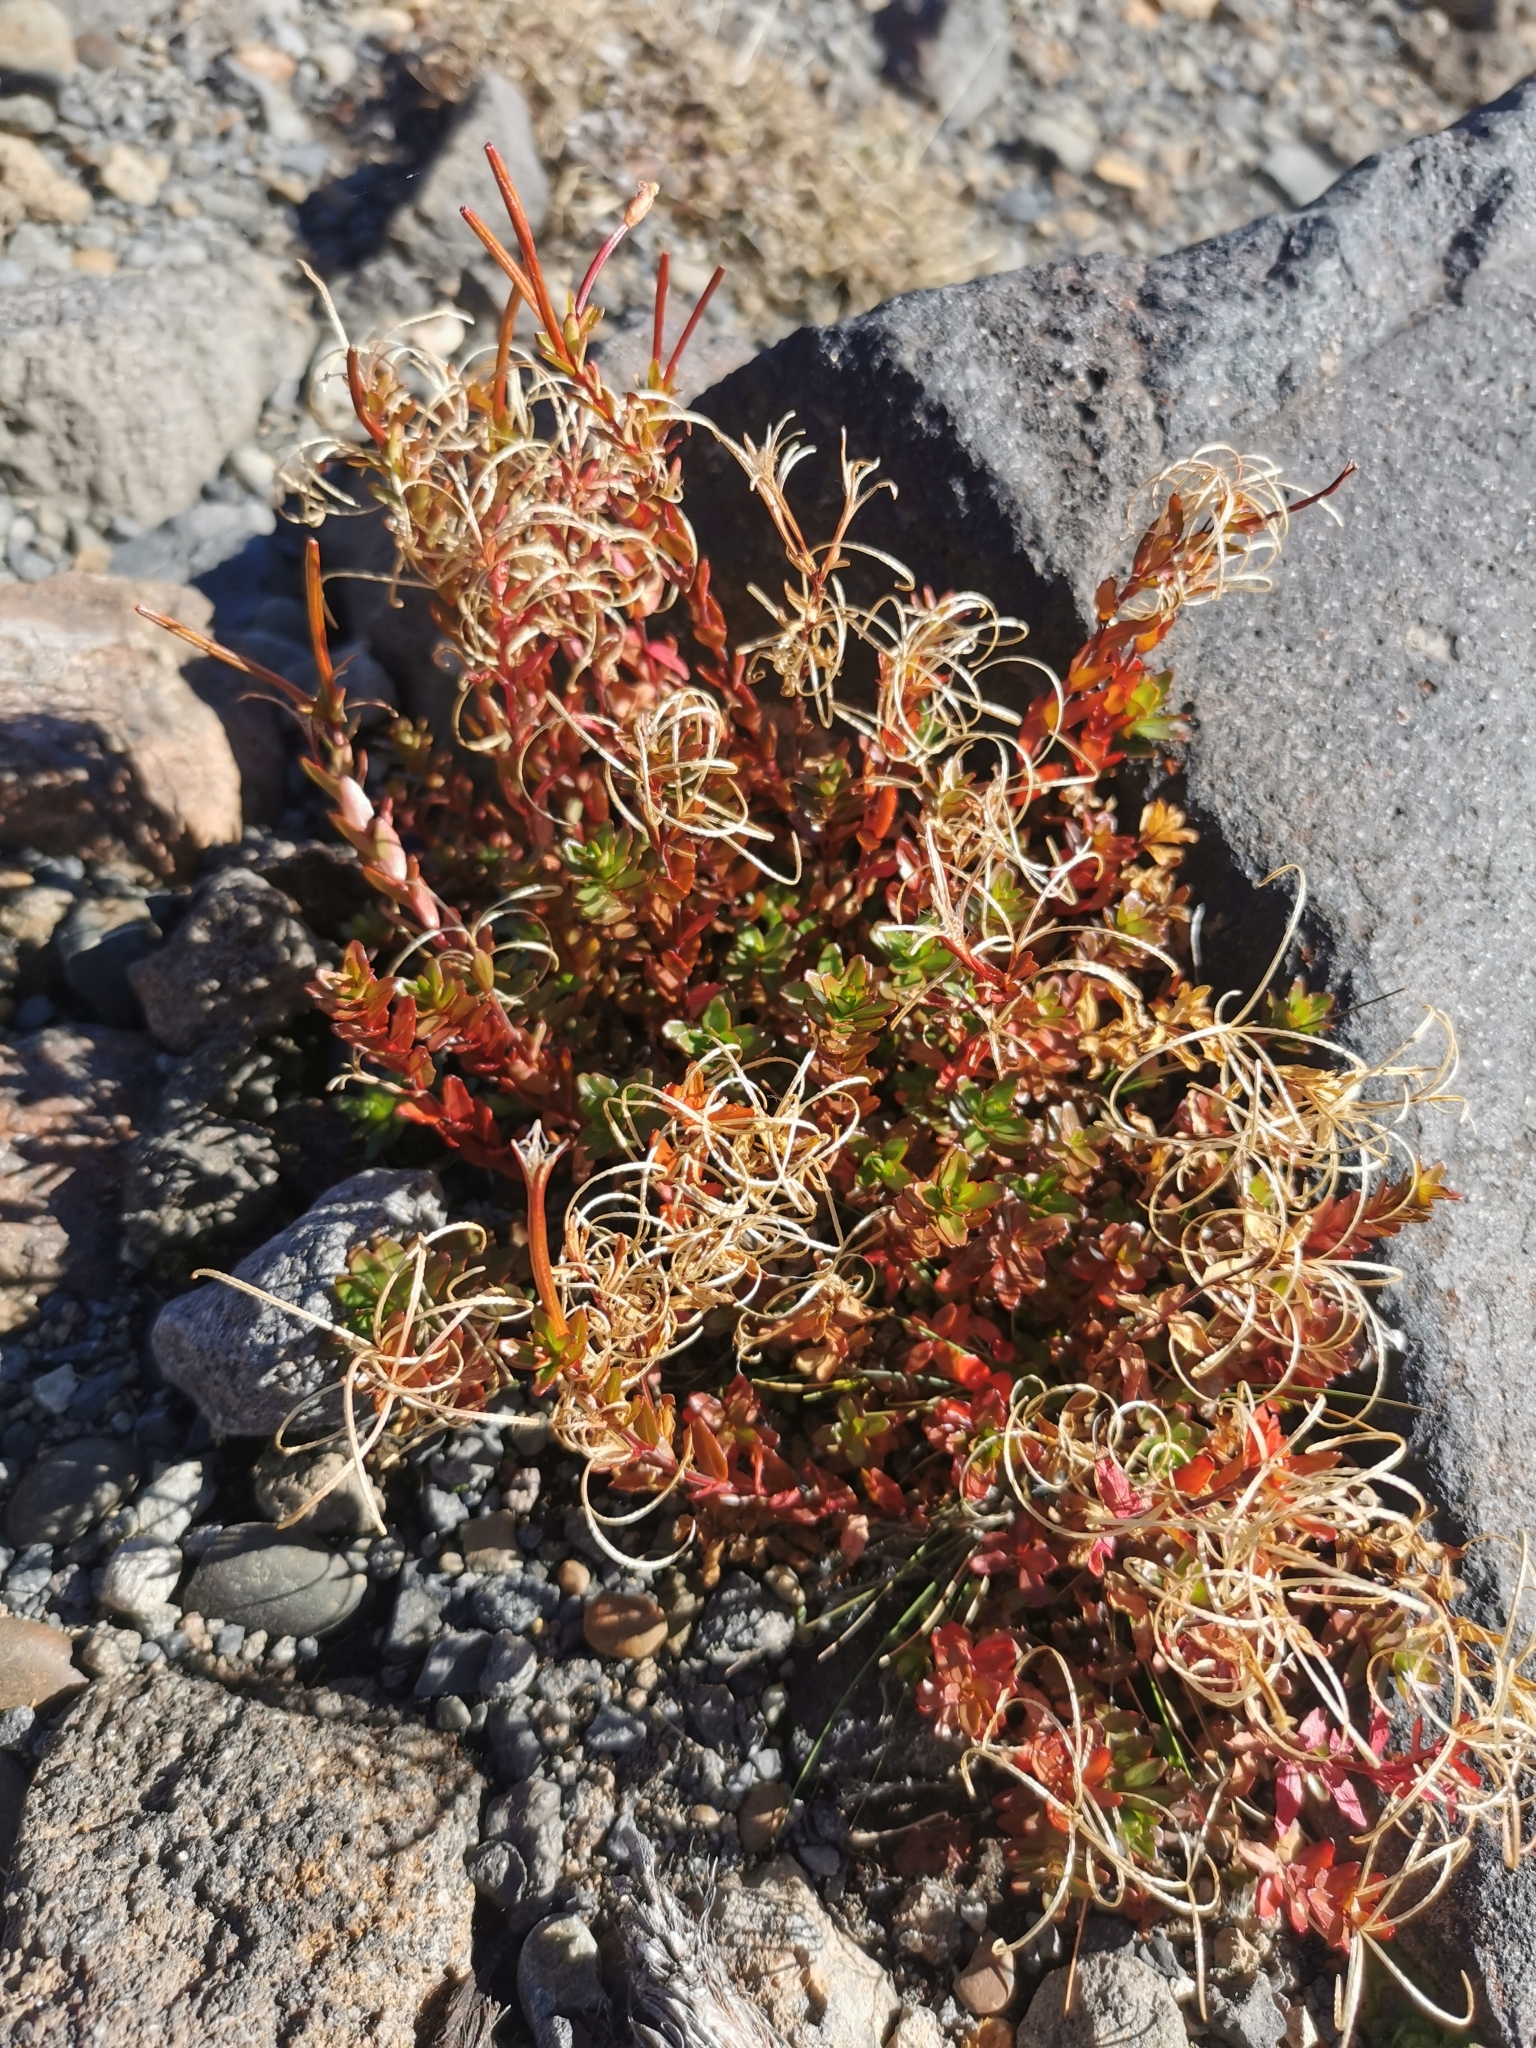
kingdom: Plantae
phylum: Tracheophyta
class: Magnoliopsida
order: Myrtales
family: Onagraceae
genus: Epilobium
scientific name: Epilobium glabellum
